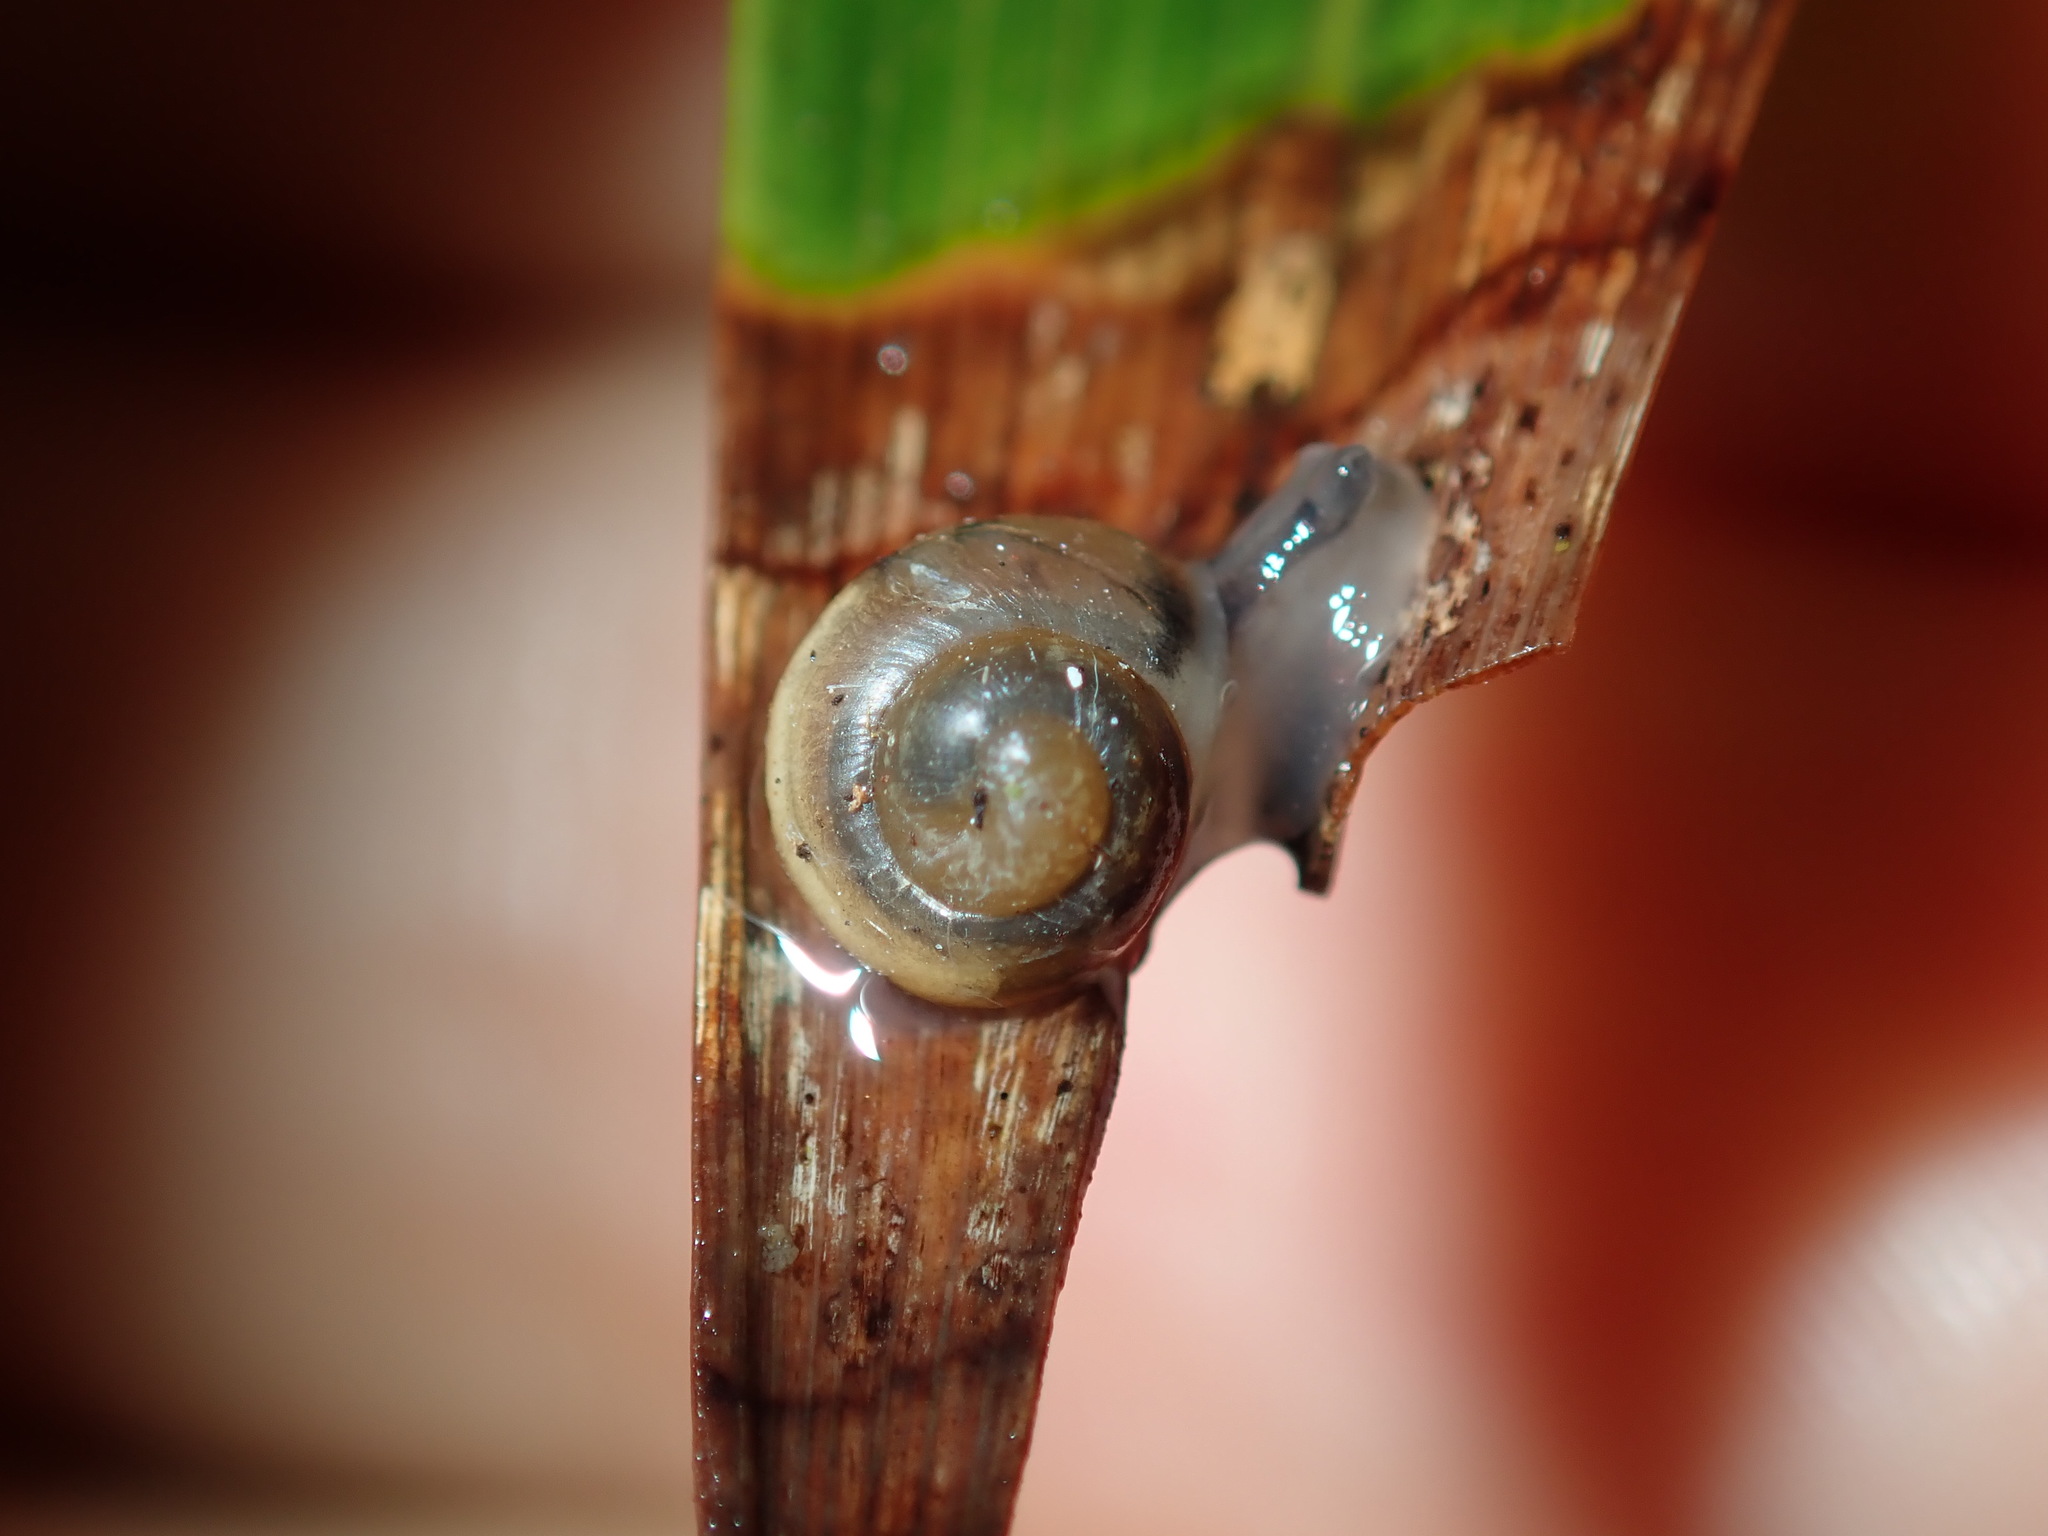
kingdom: Animalia
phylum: Mollusca
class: Gastropoda
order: Stylommatophora
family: Camaenidae
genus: Posorites
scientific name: Posorites conscendens
